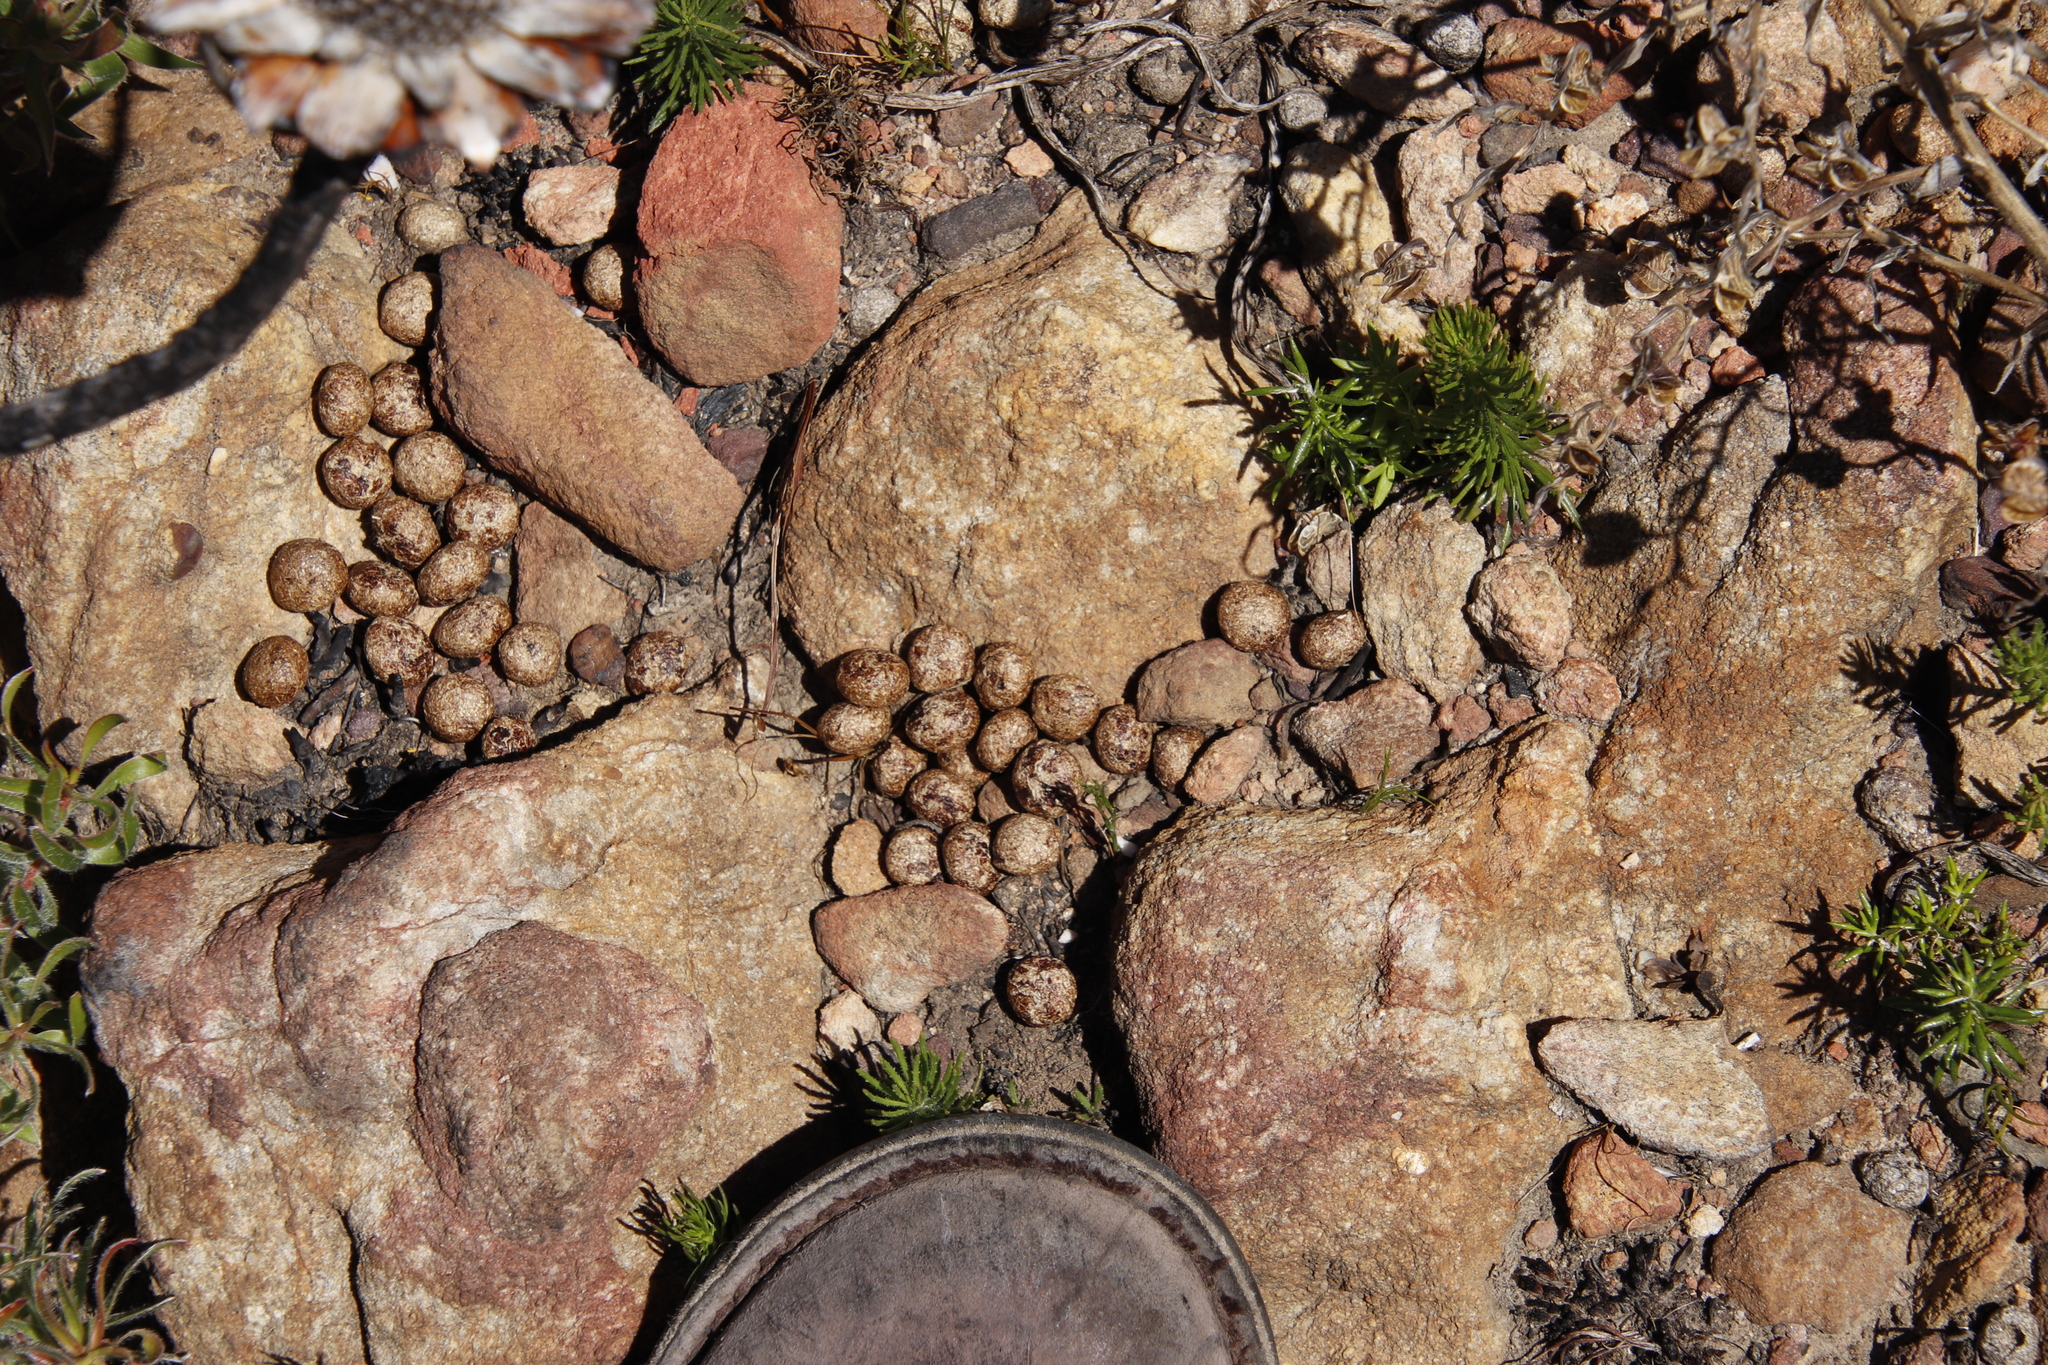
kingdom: Animalia
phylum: Chordata
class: Mammalia
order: Lagomorpha
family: Leporidae
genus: Pronolagus
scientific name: Pronolagus saundersiae
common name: Hewitt's red rock hare
